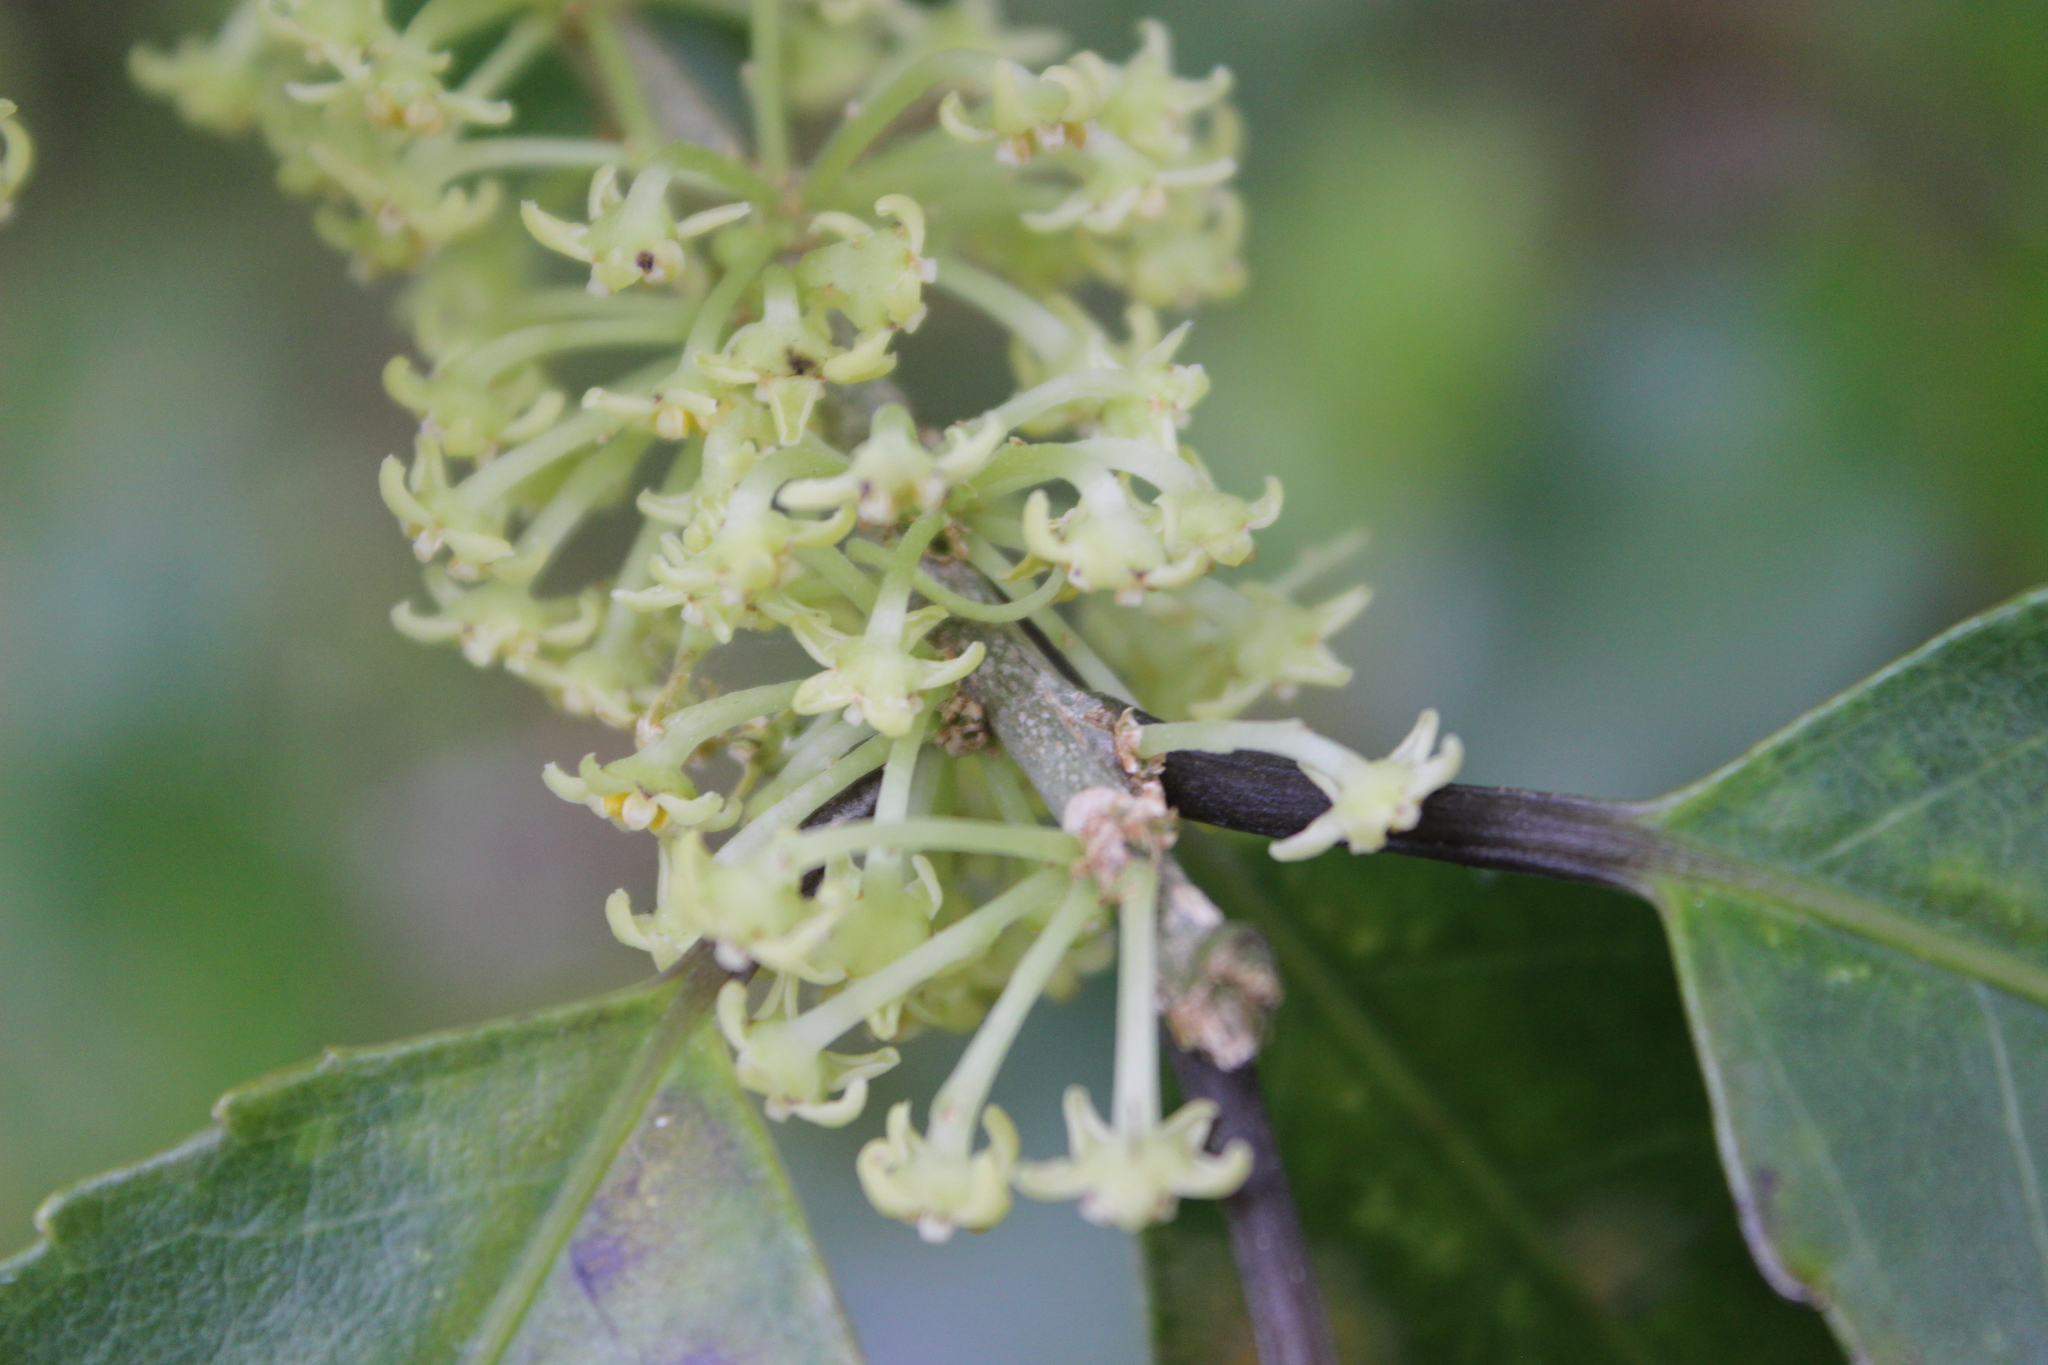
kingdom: Plantae
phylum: Tracheophyta
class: Magnoliopsida
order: Malpighiales
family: Violaceae
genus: Melicytus
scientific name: Melicytus ramiflorus
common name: Mahoe
